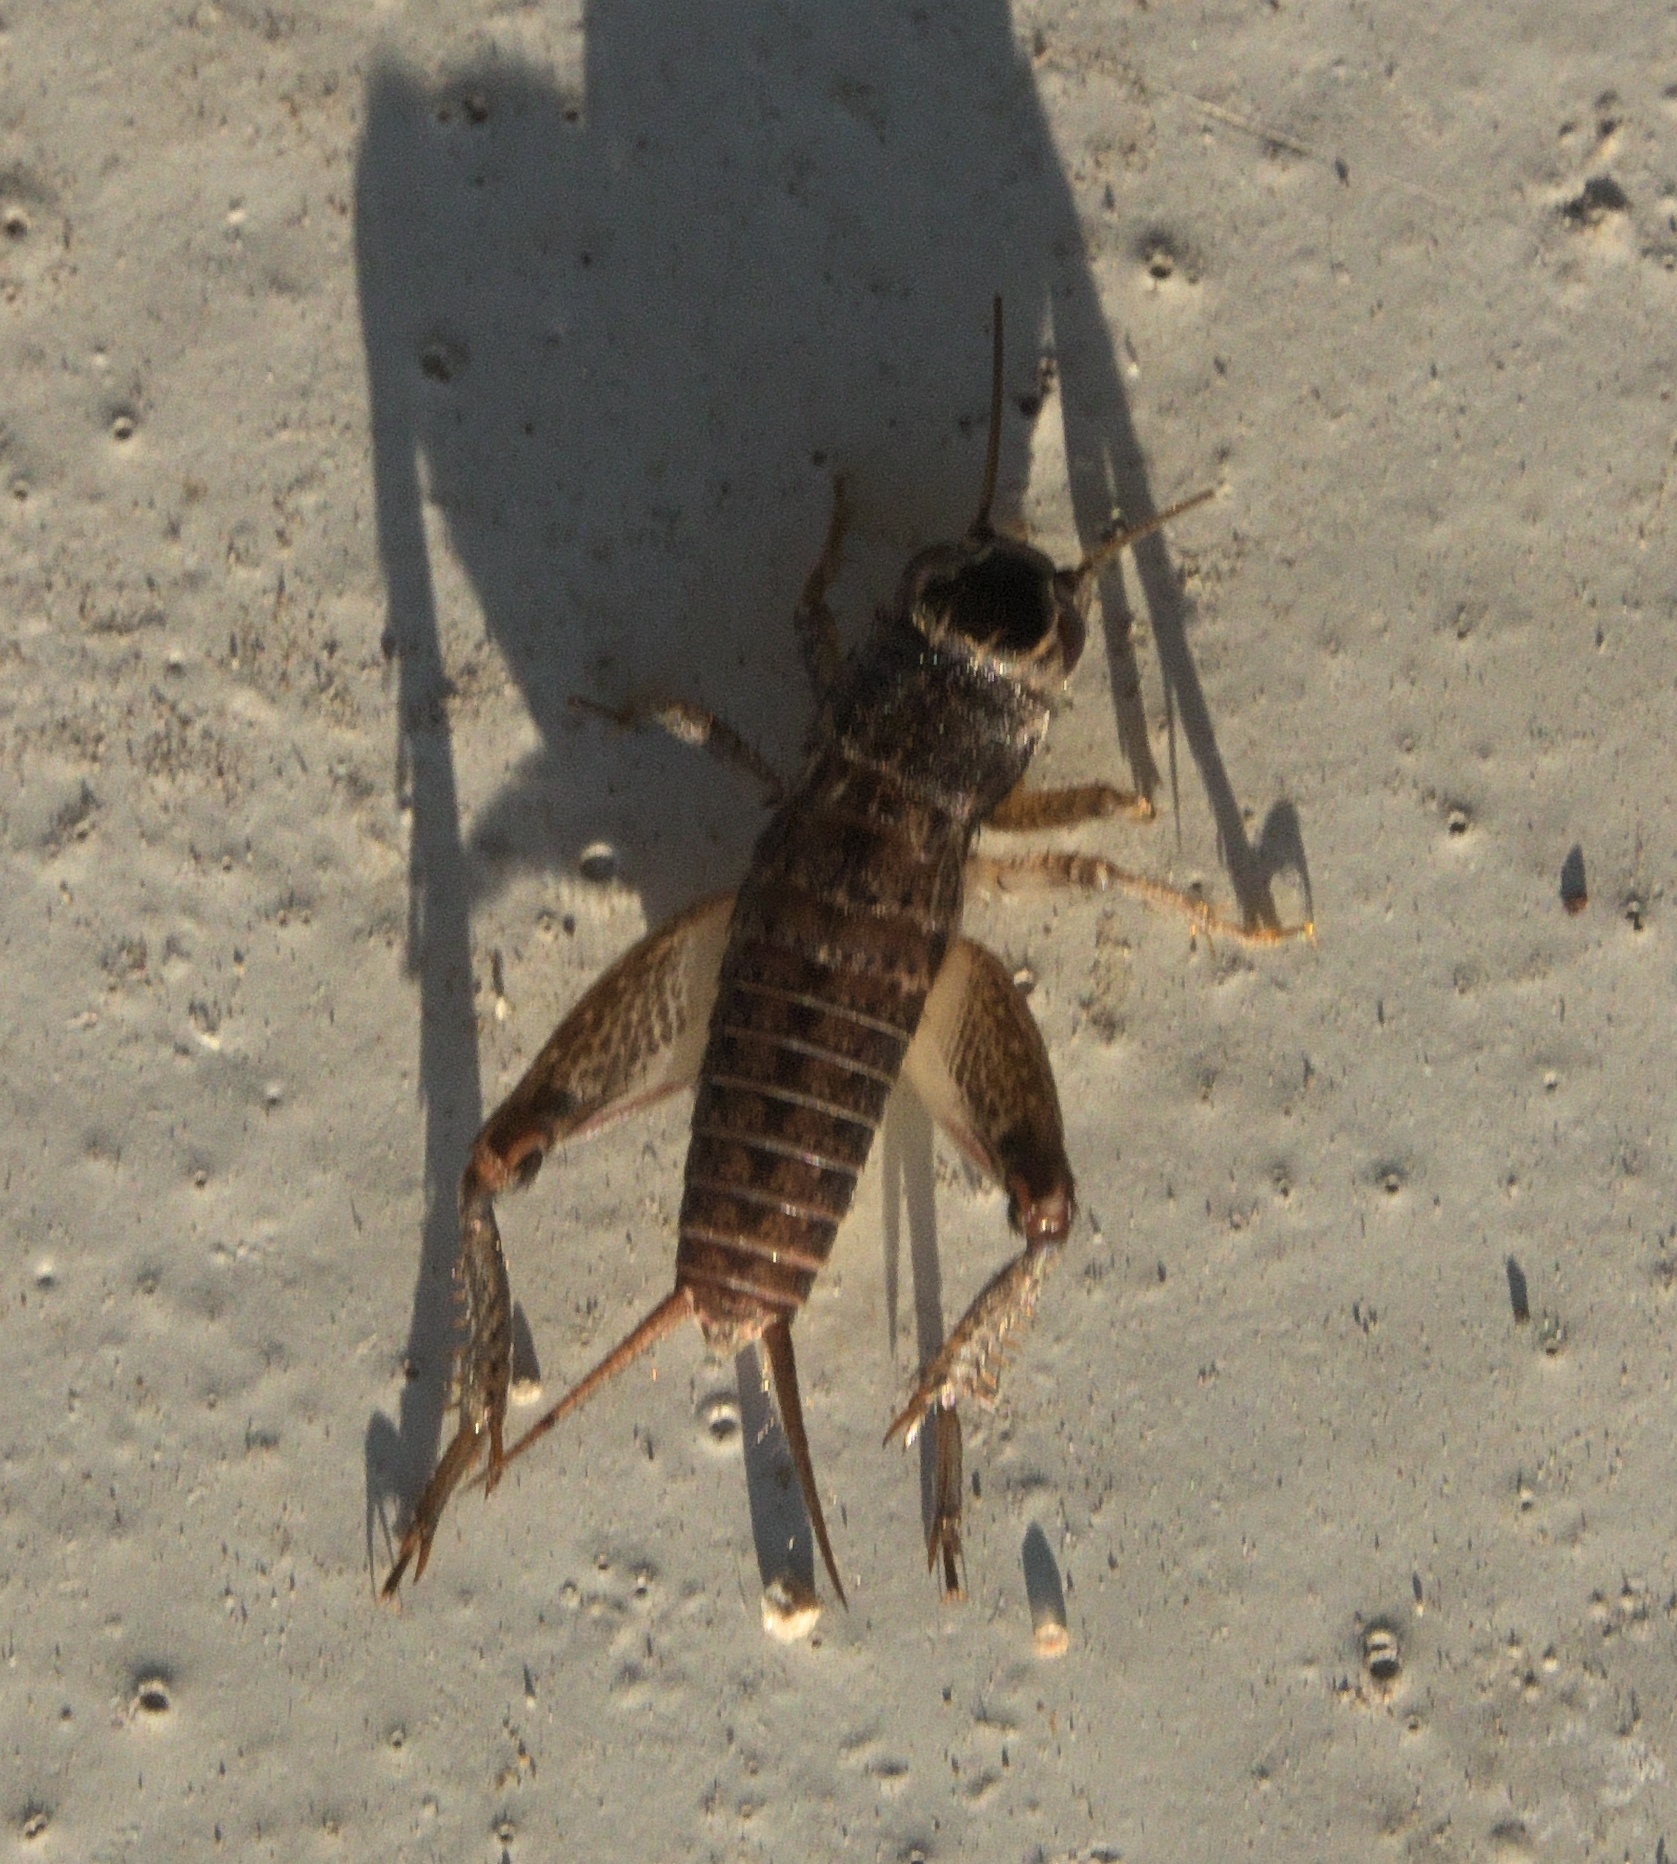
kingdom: Animalia
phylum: Arthropoda
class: Insecta
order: Orthoptera
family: Gryllidae
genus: Miogryllus
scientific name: Miogryllus verticalis
